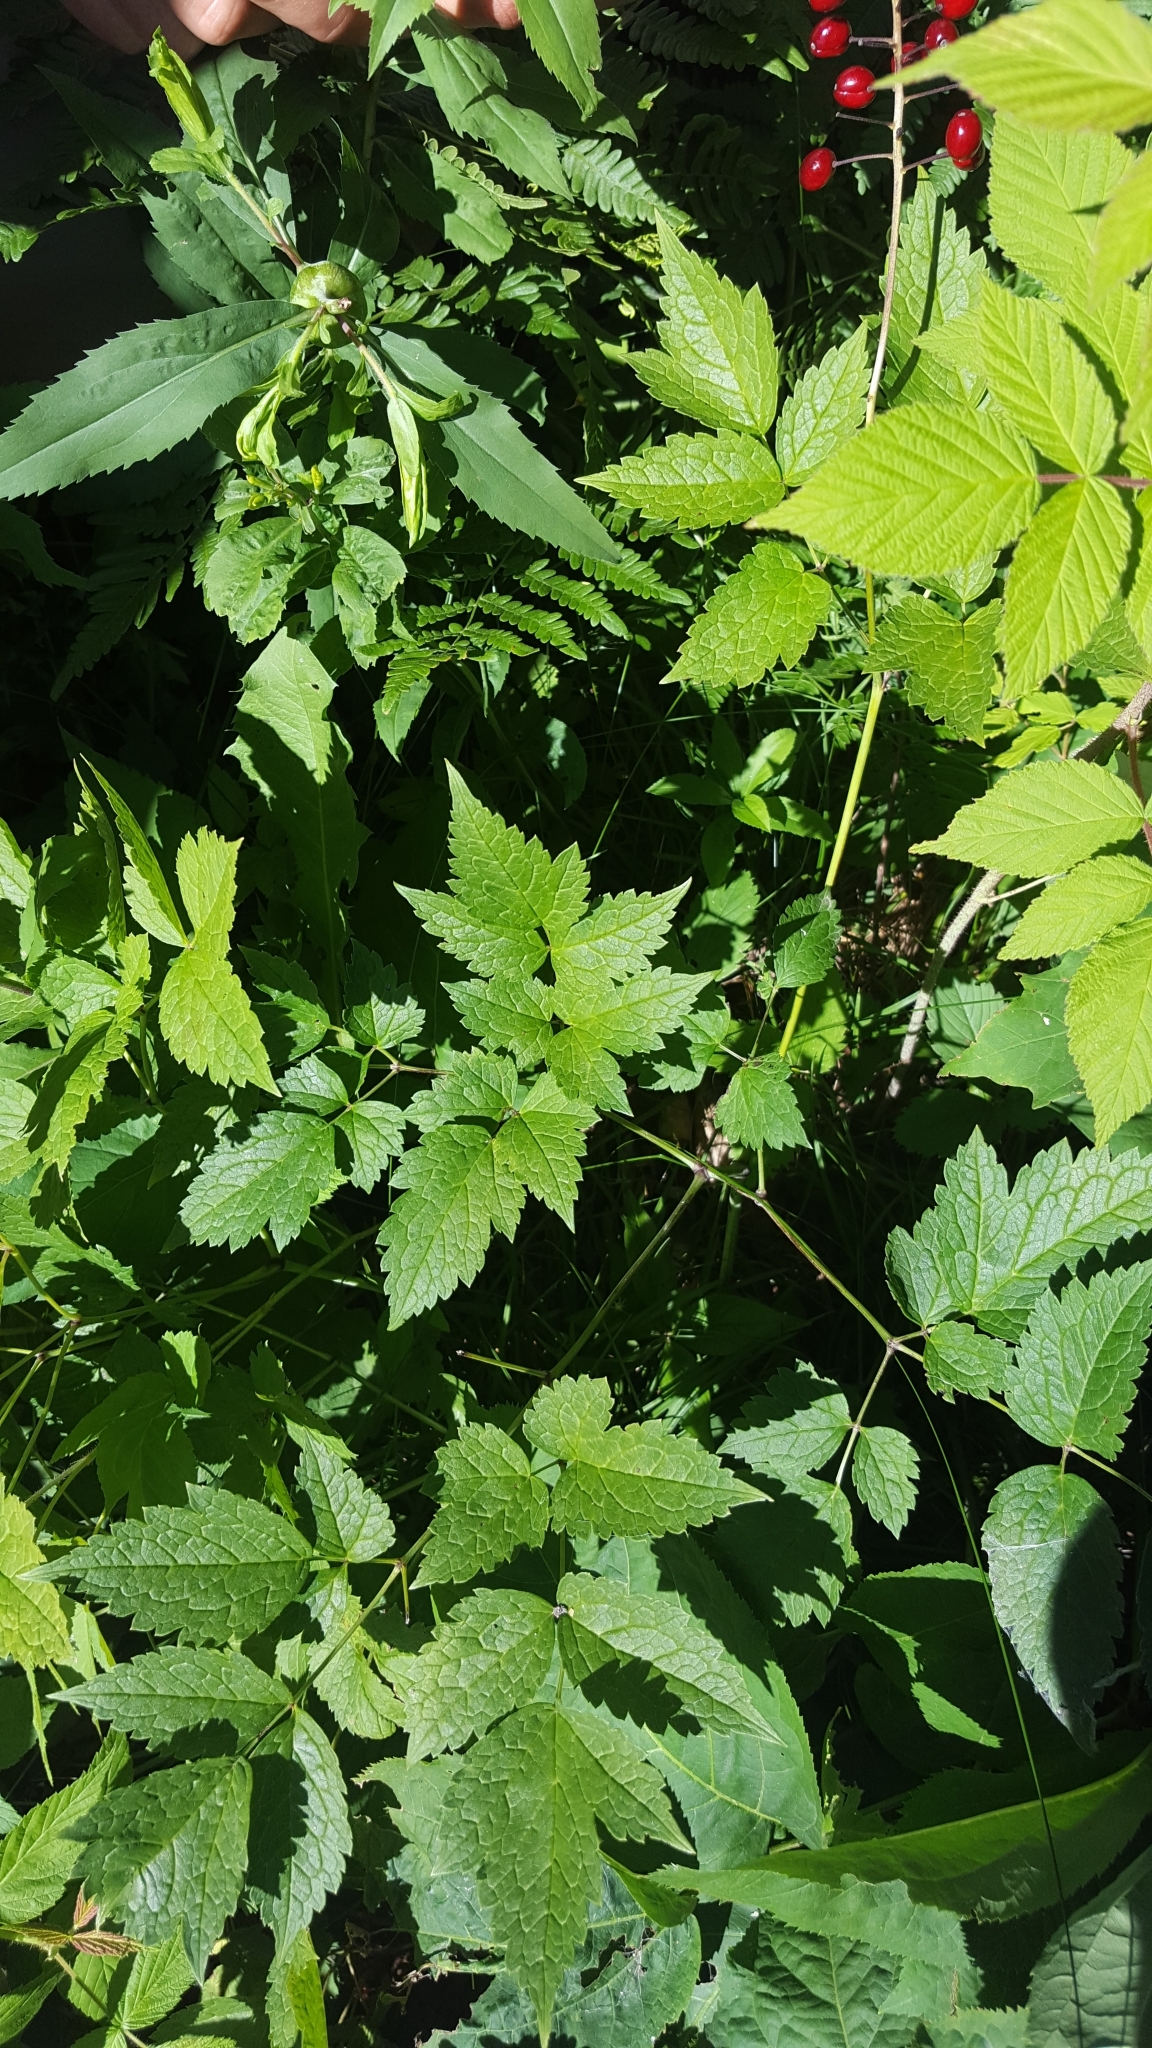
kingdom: Plantae
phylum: Tracheophyta
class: Magnoliopsida
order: Ranunculales
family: Ranunculaceae
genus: Actaea
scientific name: Actaea rubra
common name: Red baneberry
